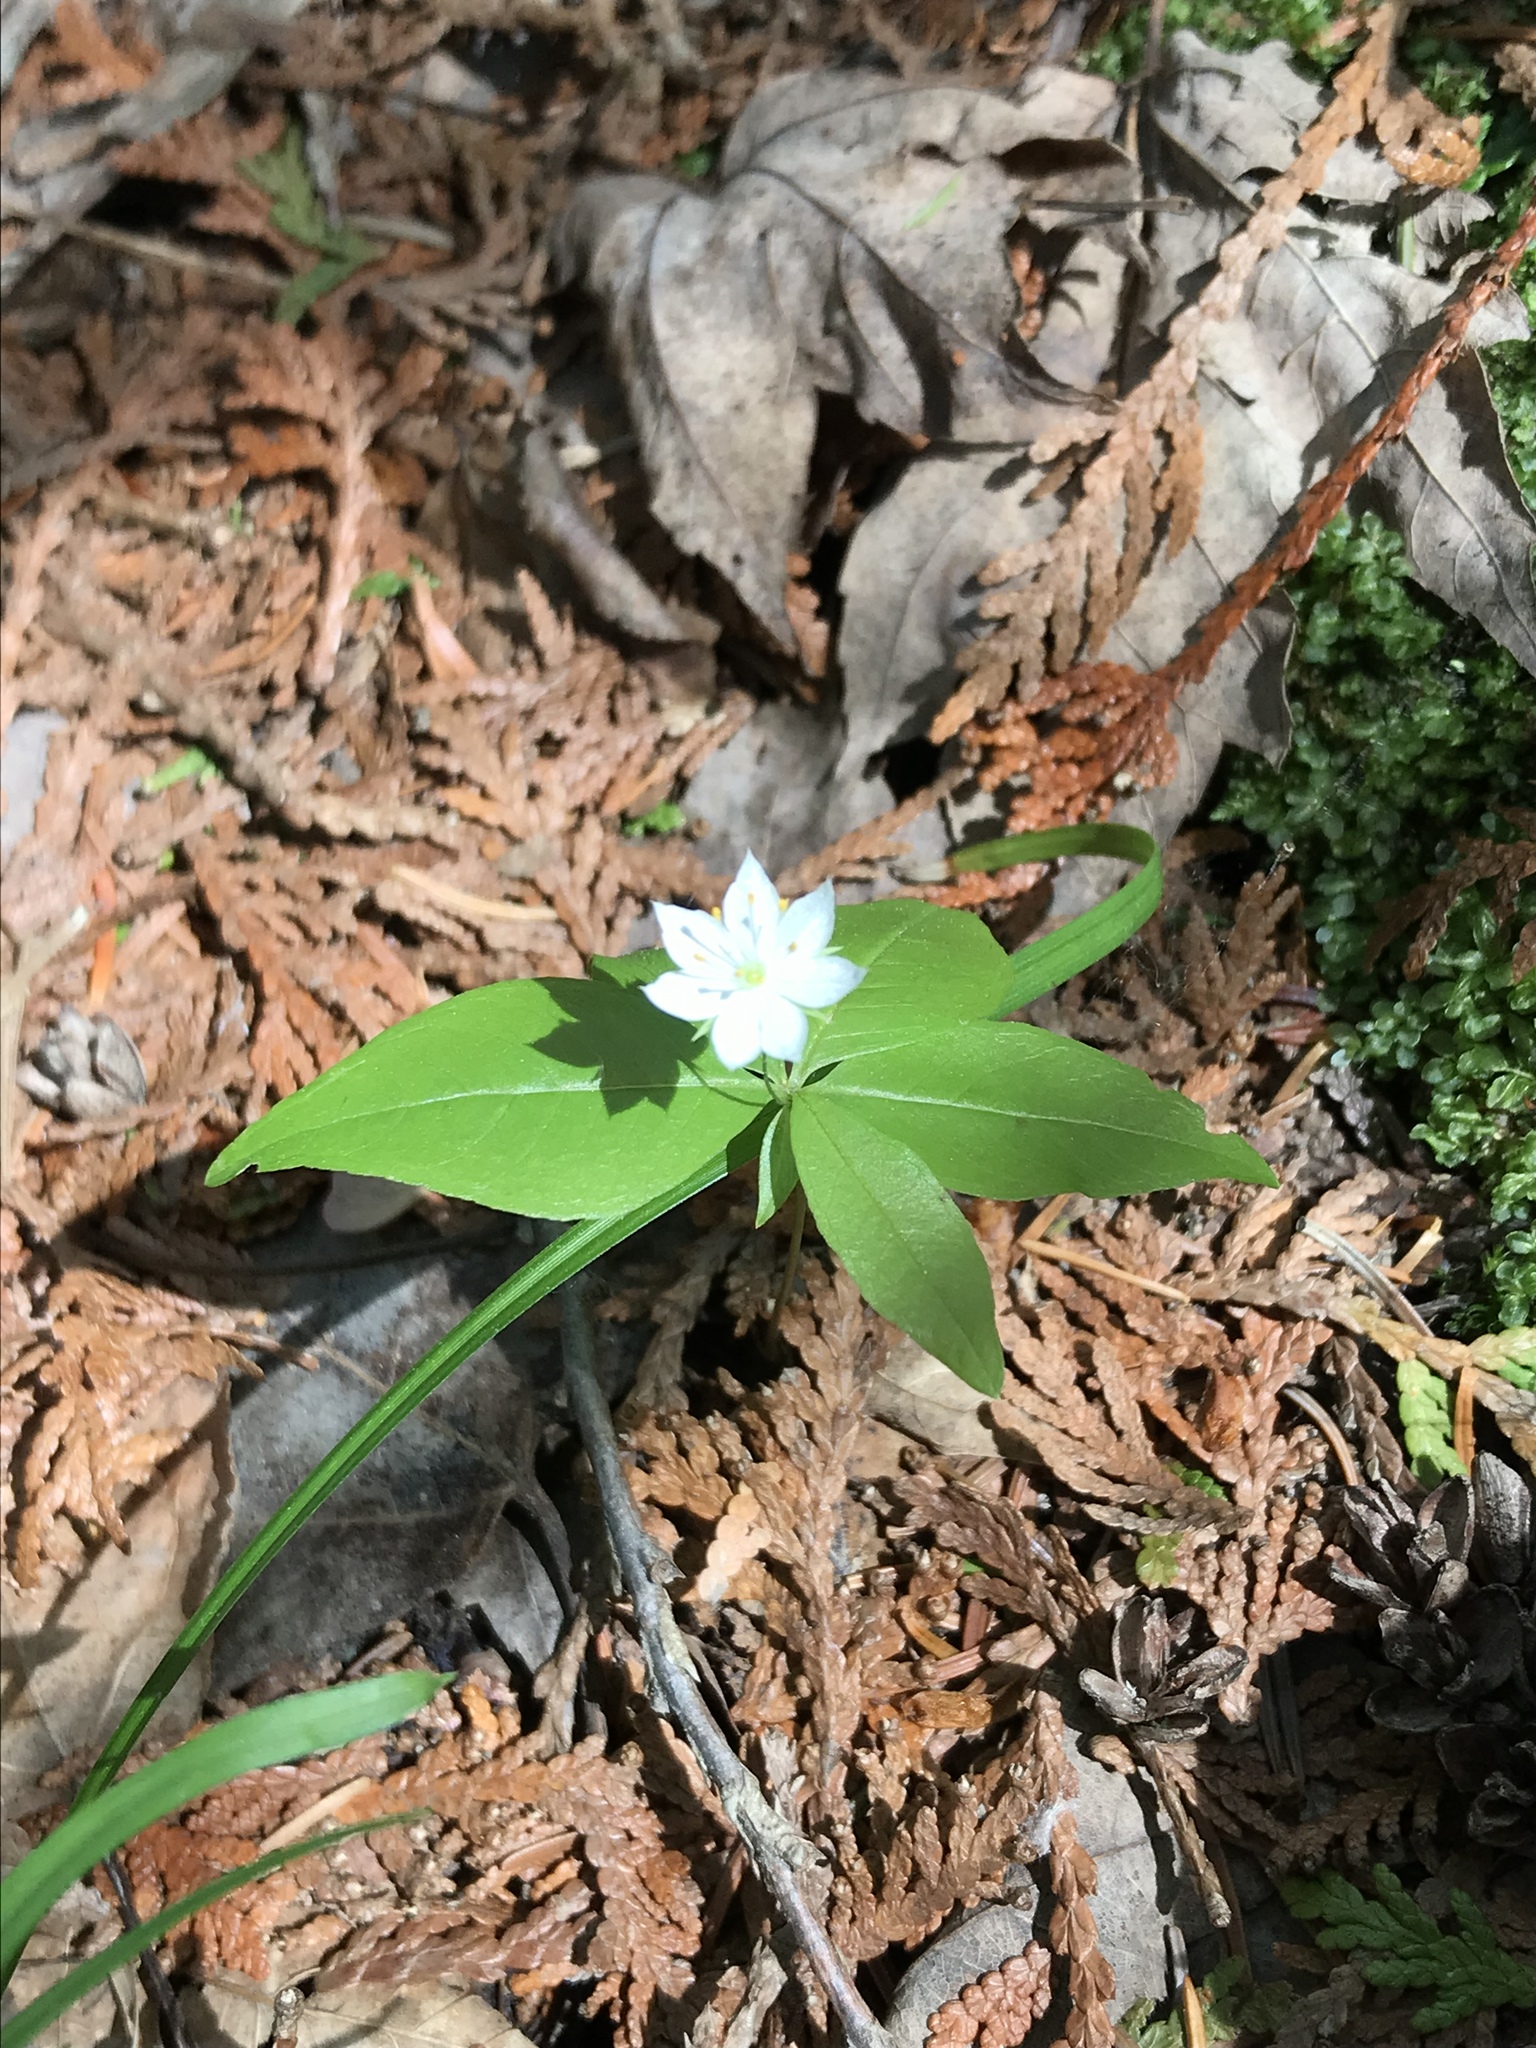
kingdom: Plantae
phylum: Tracheophyta
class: Magnoliopsida
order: Ericales
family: Primulaceae
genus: Lysimachia
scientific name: Lysimachia borealis
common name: American starflower
